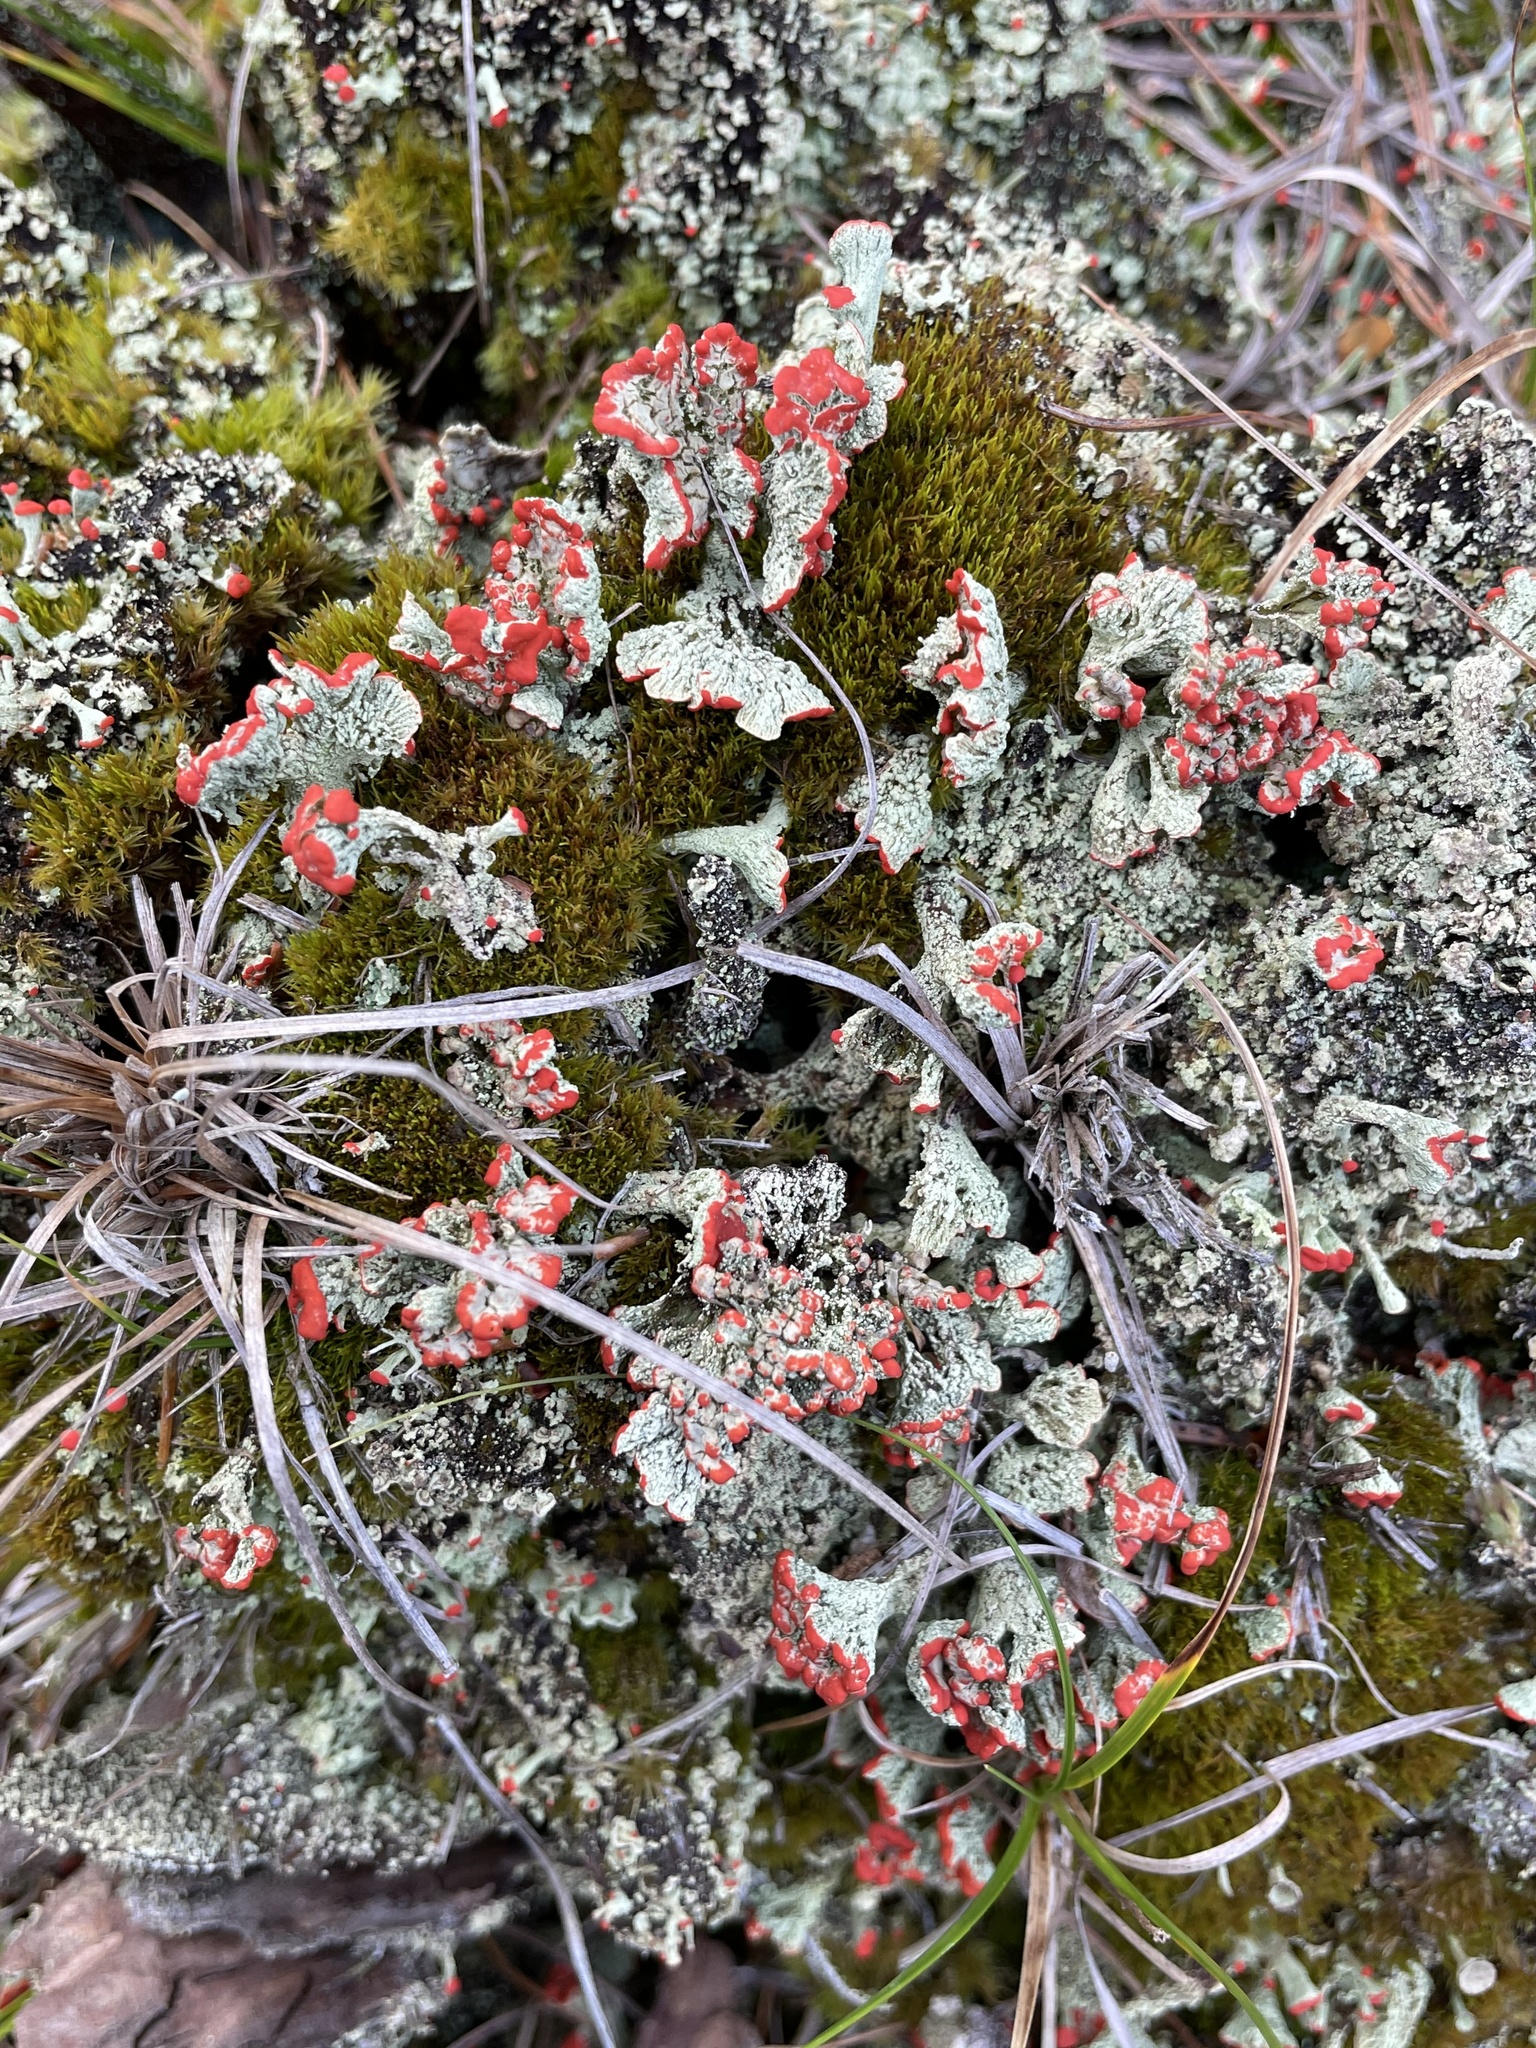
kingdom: Fungi
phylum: Ascomycota
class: Lecanoromycetes
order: Lecanorales
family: Cladoniaceae
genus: Cladonia
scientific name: Cladonia incrassata
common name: Powder-foot british soldiers
